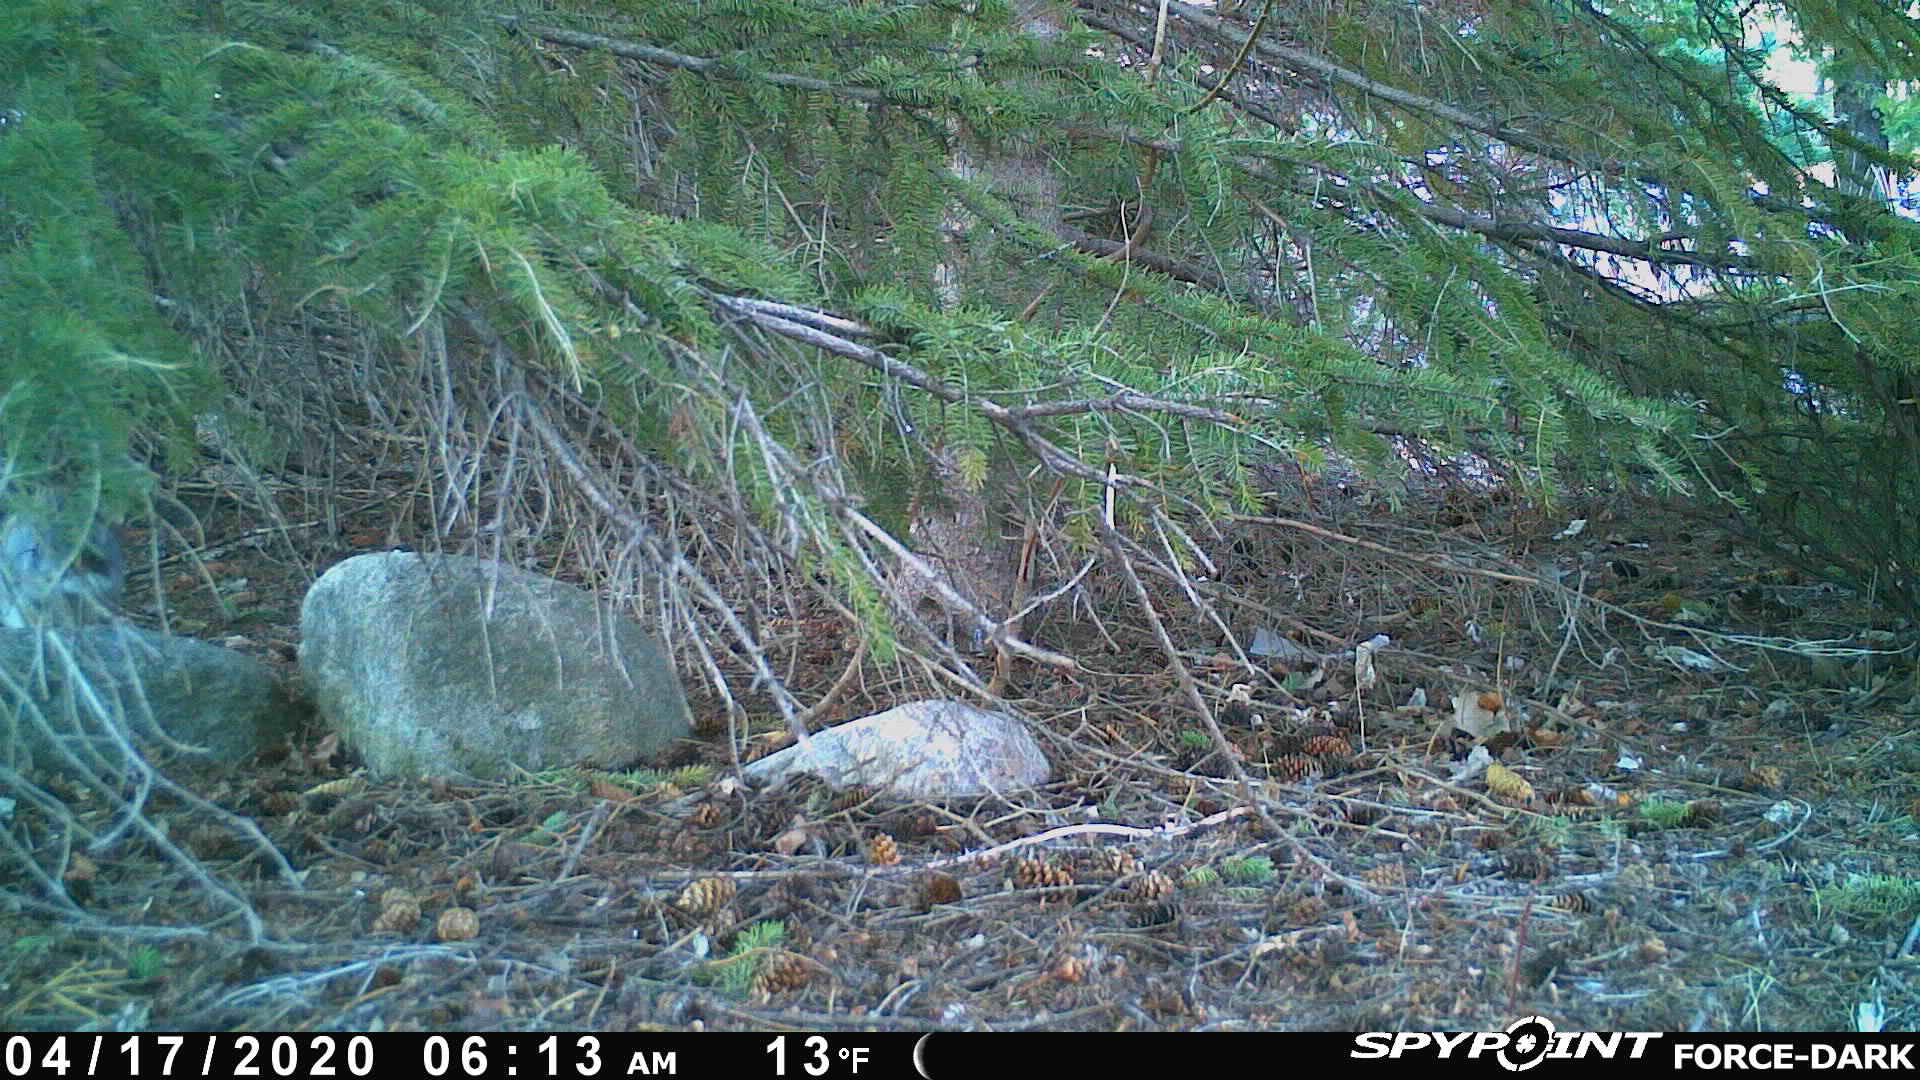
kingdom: Animalia
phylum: Chordata
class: Mammalia
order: Lagomorpha
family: Leporidae
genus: Sylvilagus
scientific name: Sylvilagus floridanus
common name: Eastern cottontail
